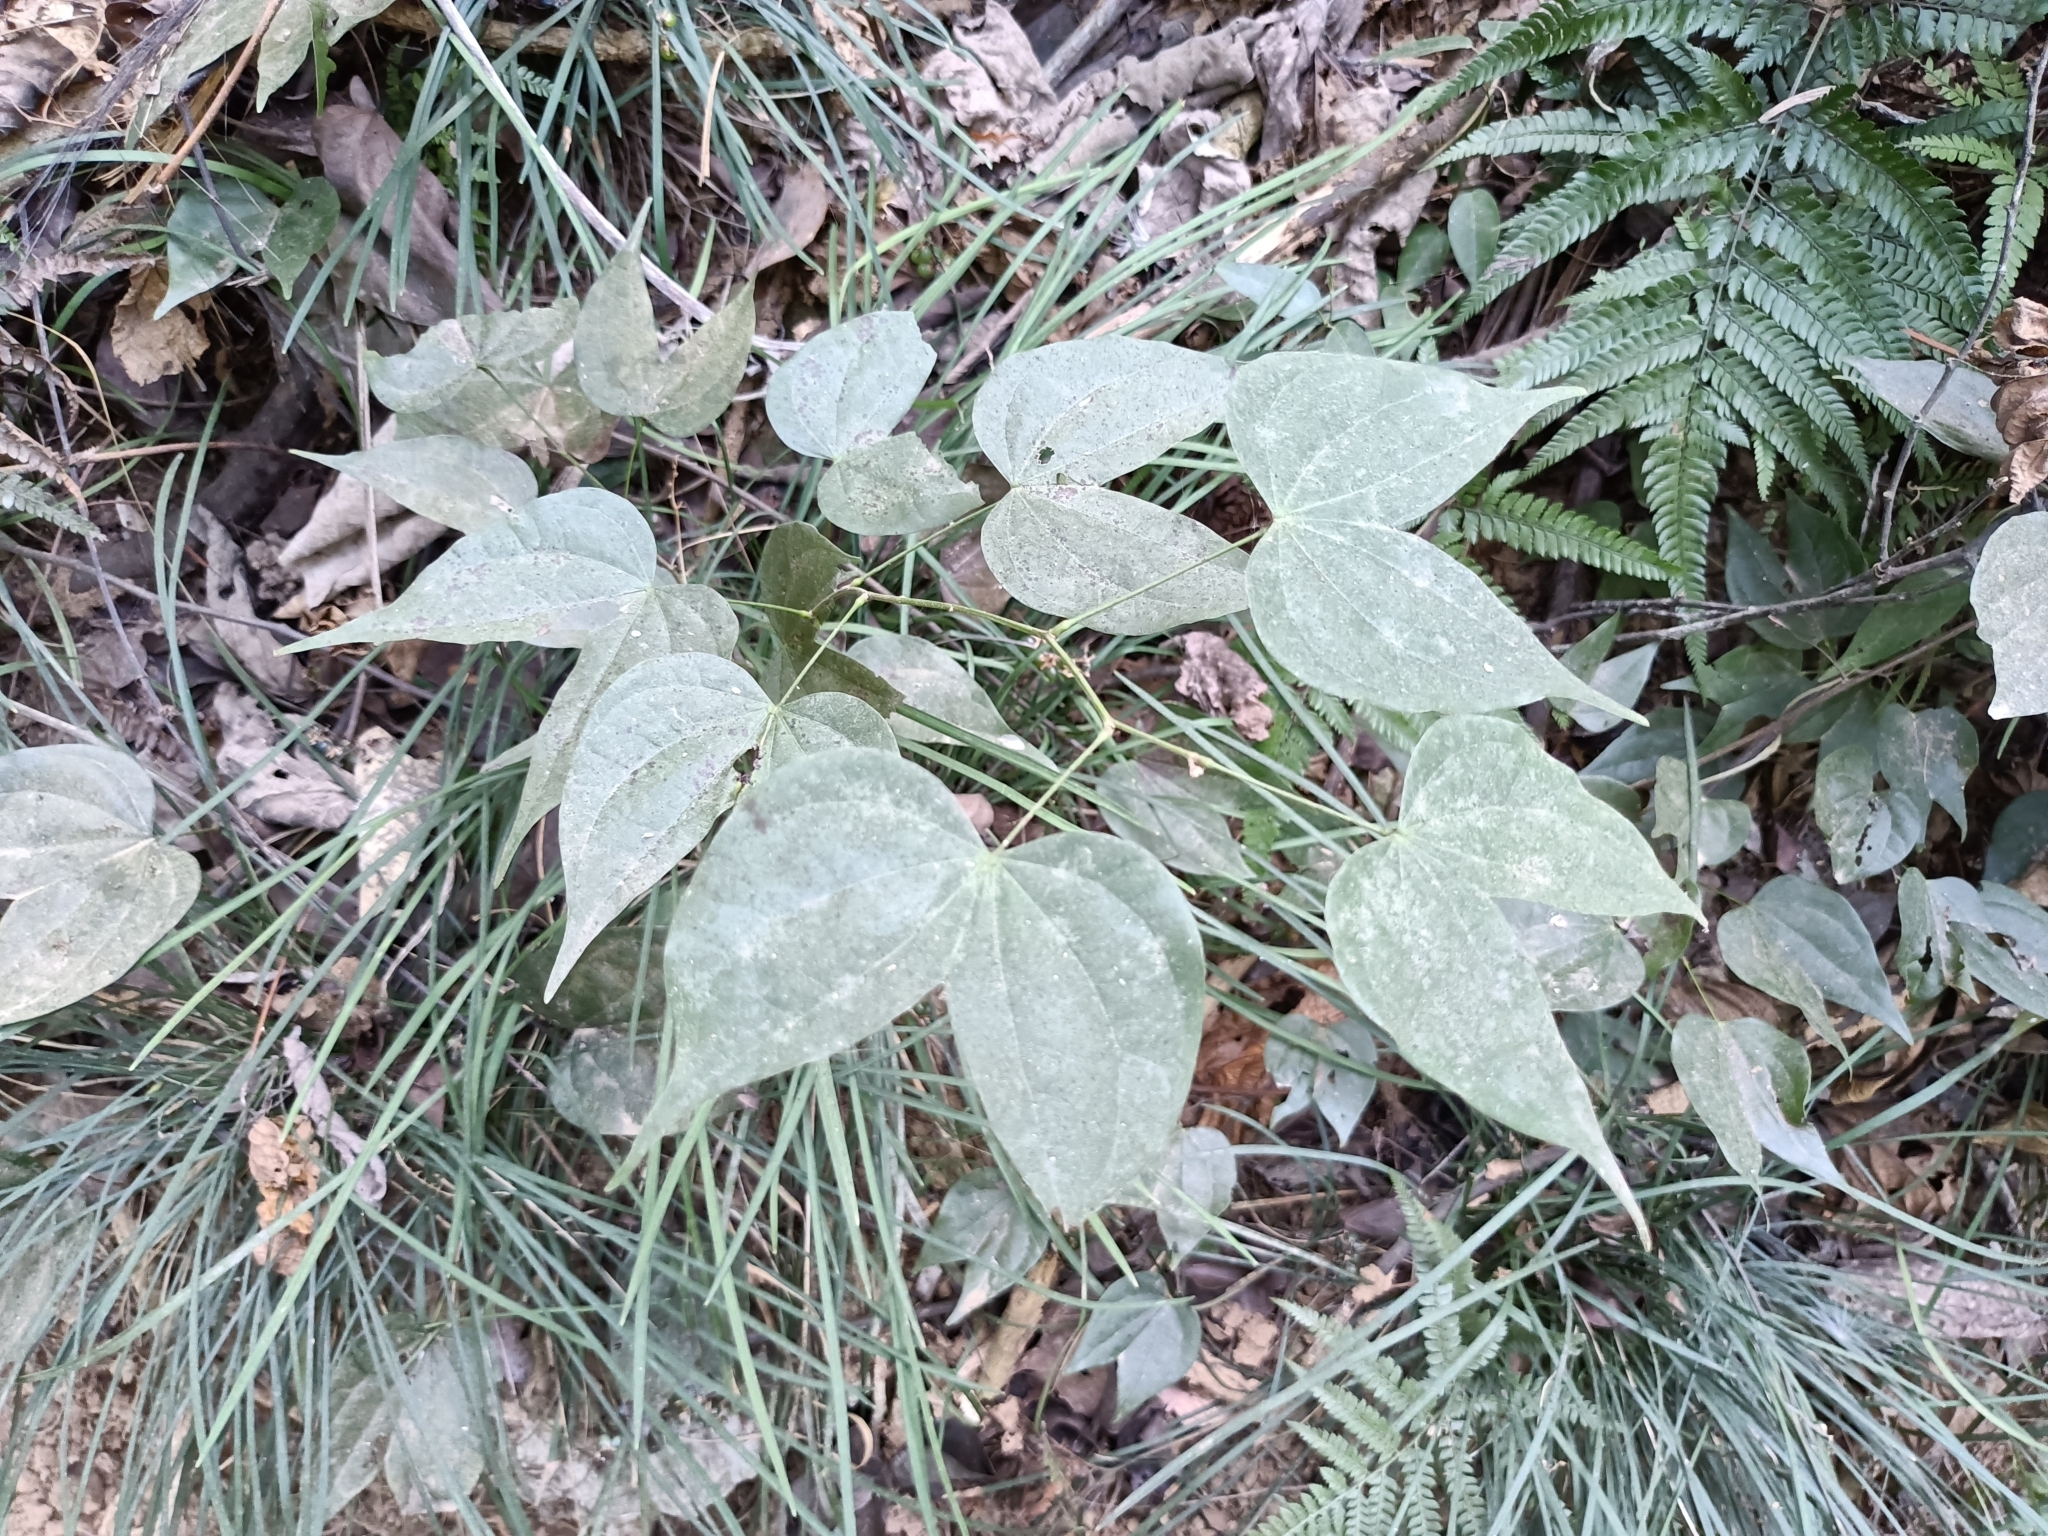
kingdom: Plantae
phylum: Tracheophyta
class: Magnoliopsida
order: Fabales
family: Fabaceae
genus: Phanera
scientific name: Phanera championii
